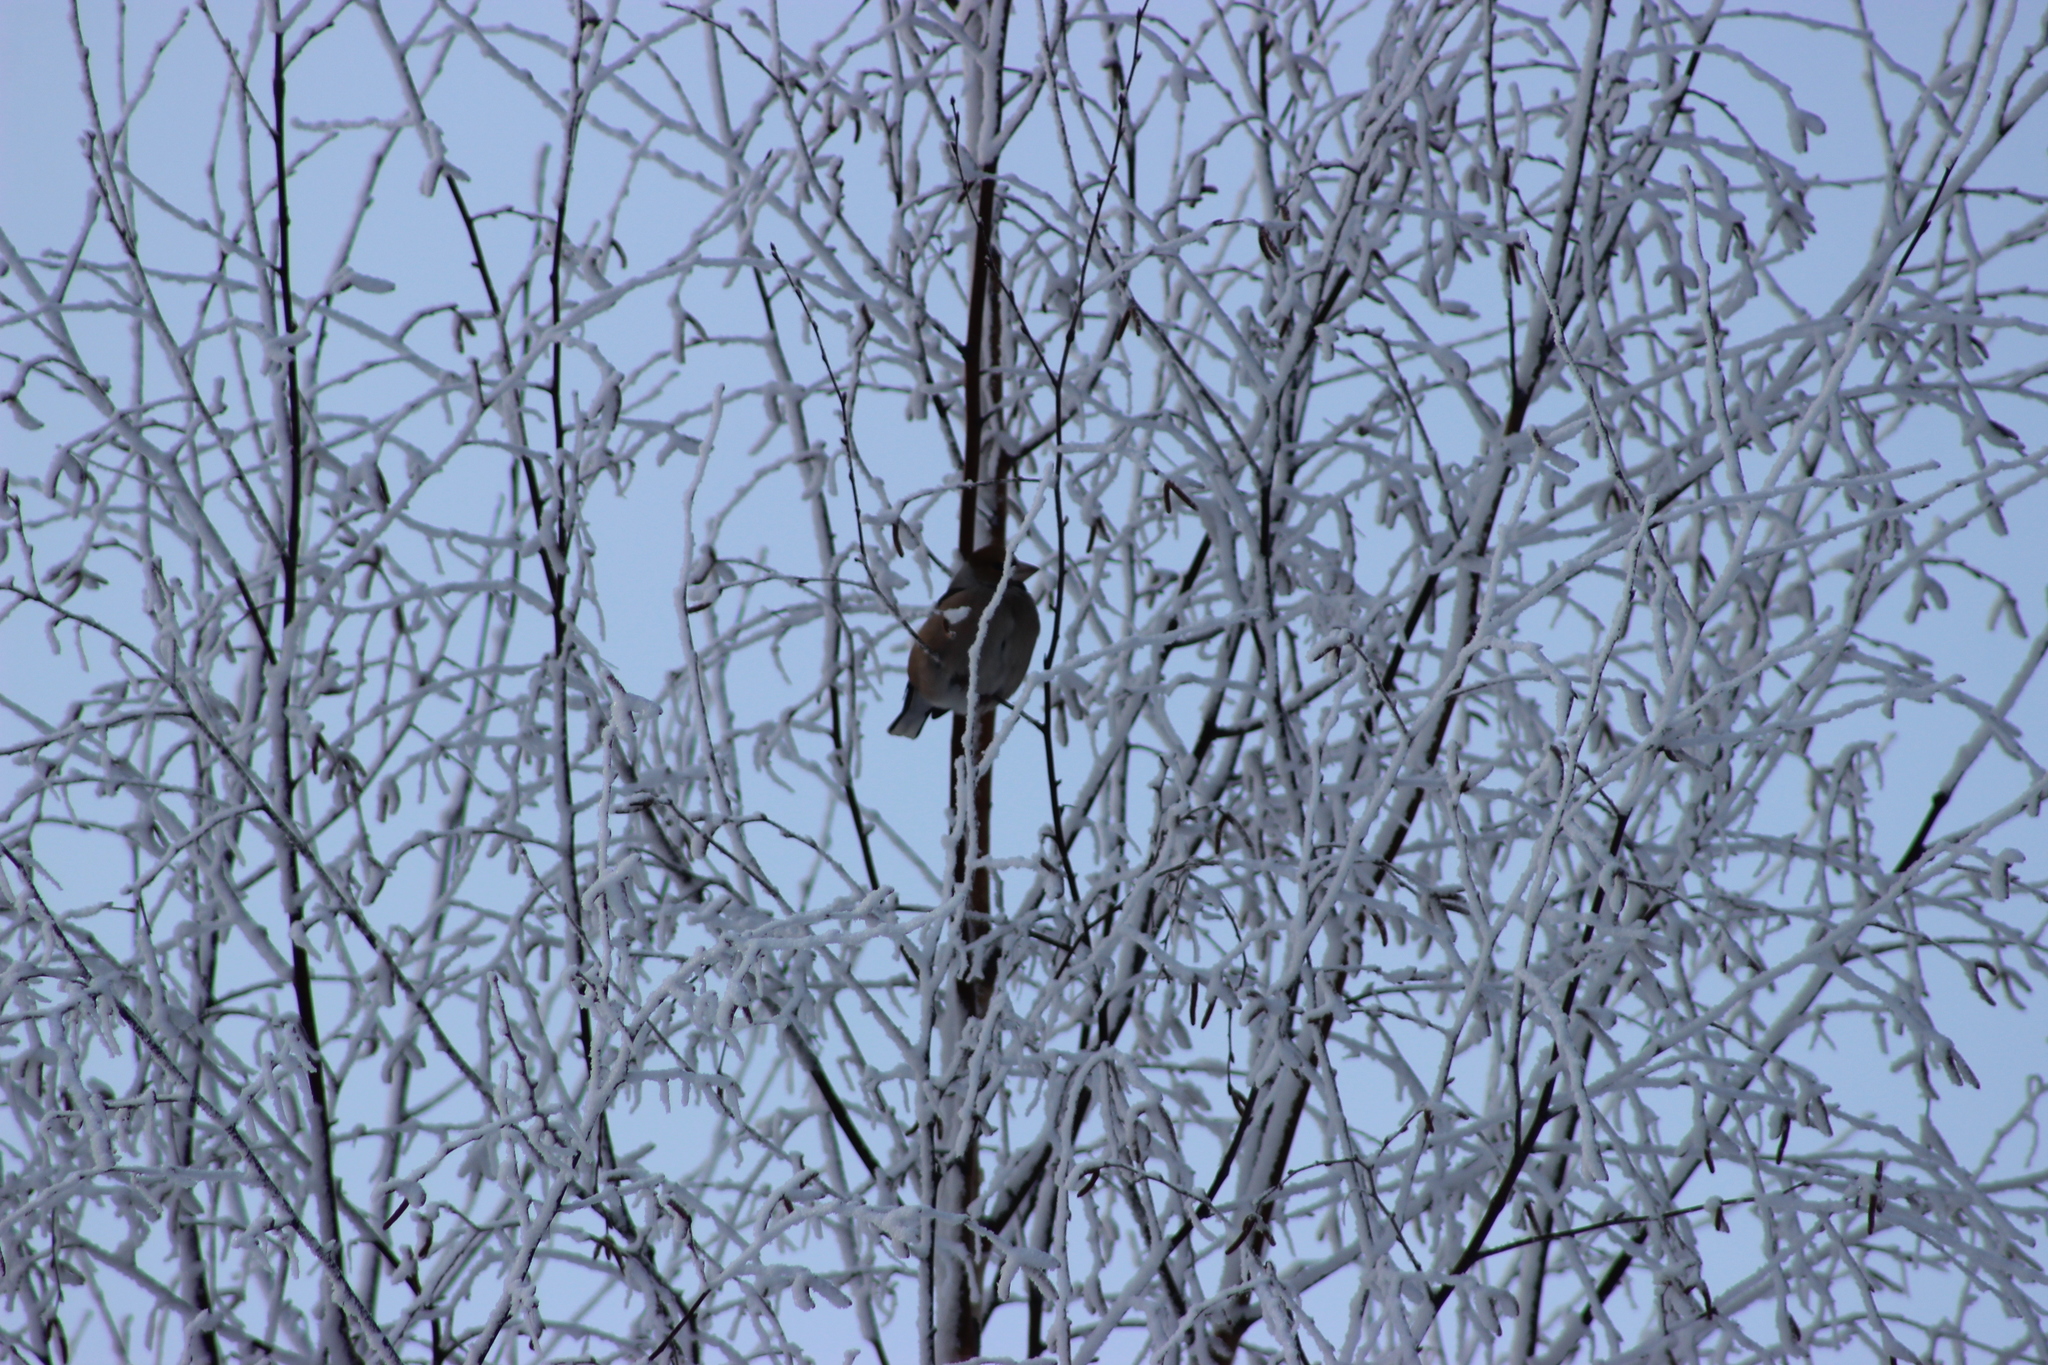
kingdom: Animalia
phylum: Chordata
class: Aves
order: Passeriformes
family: Fringillidae
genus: Coccothraustes
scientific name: Coccothraustes coccothraustes
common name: Hawfinch
